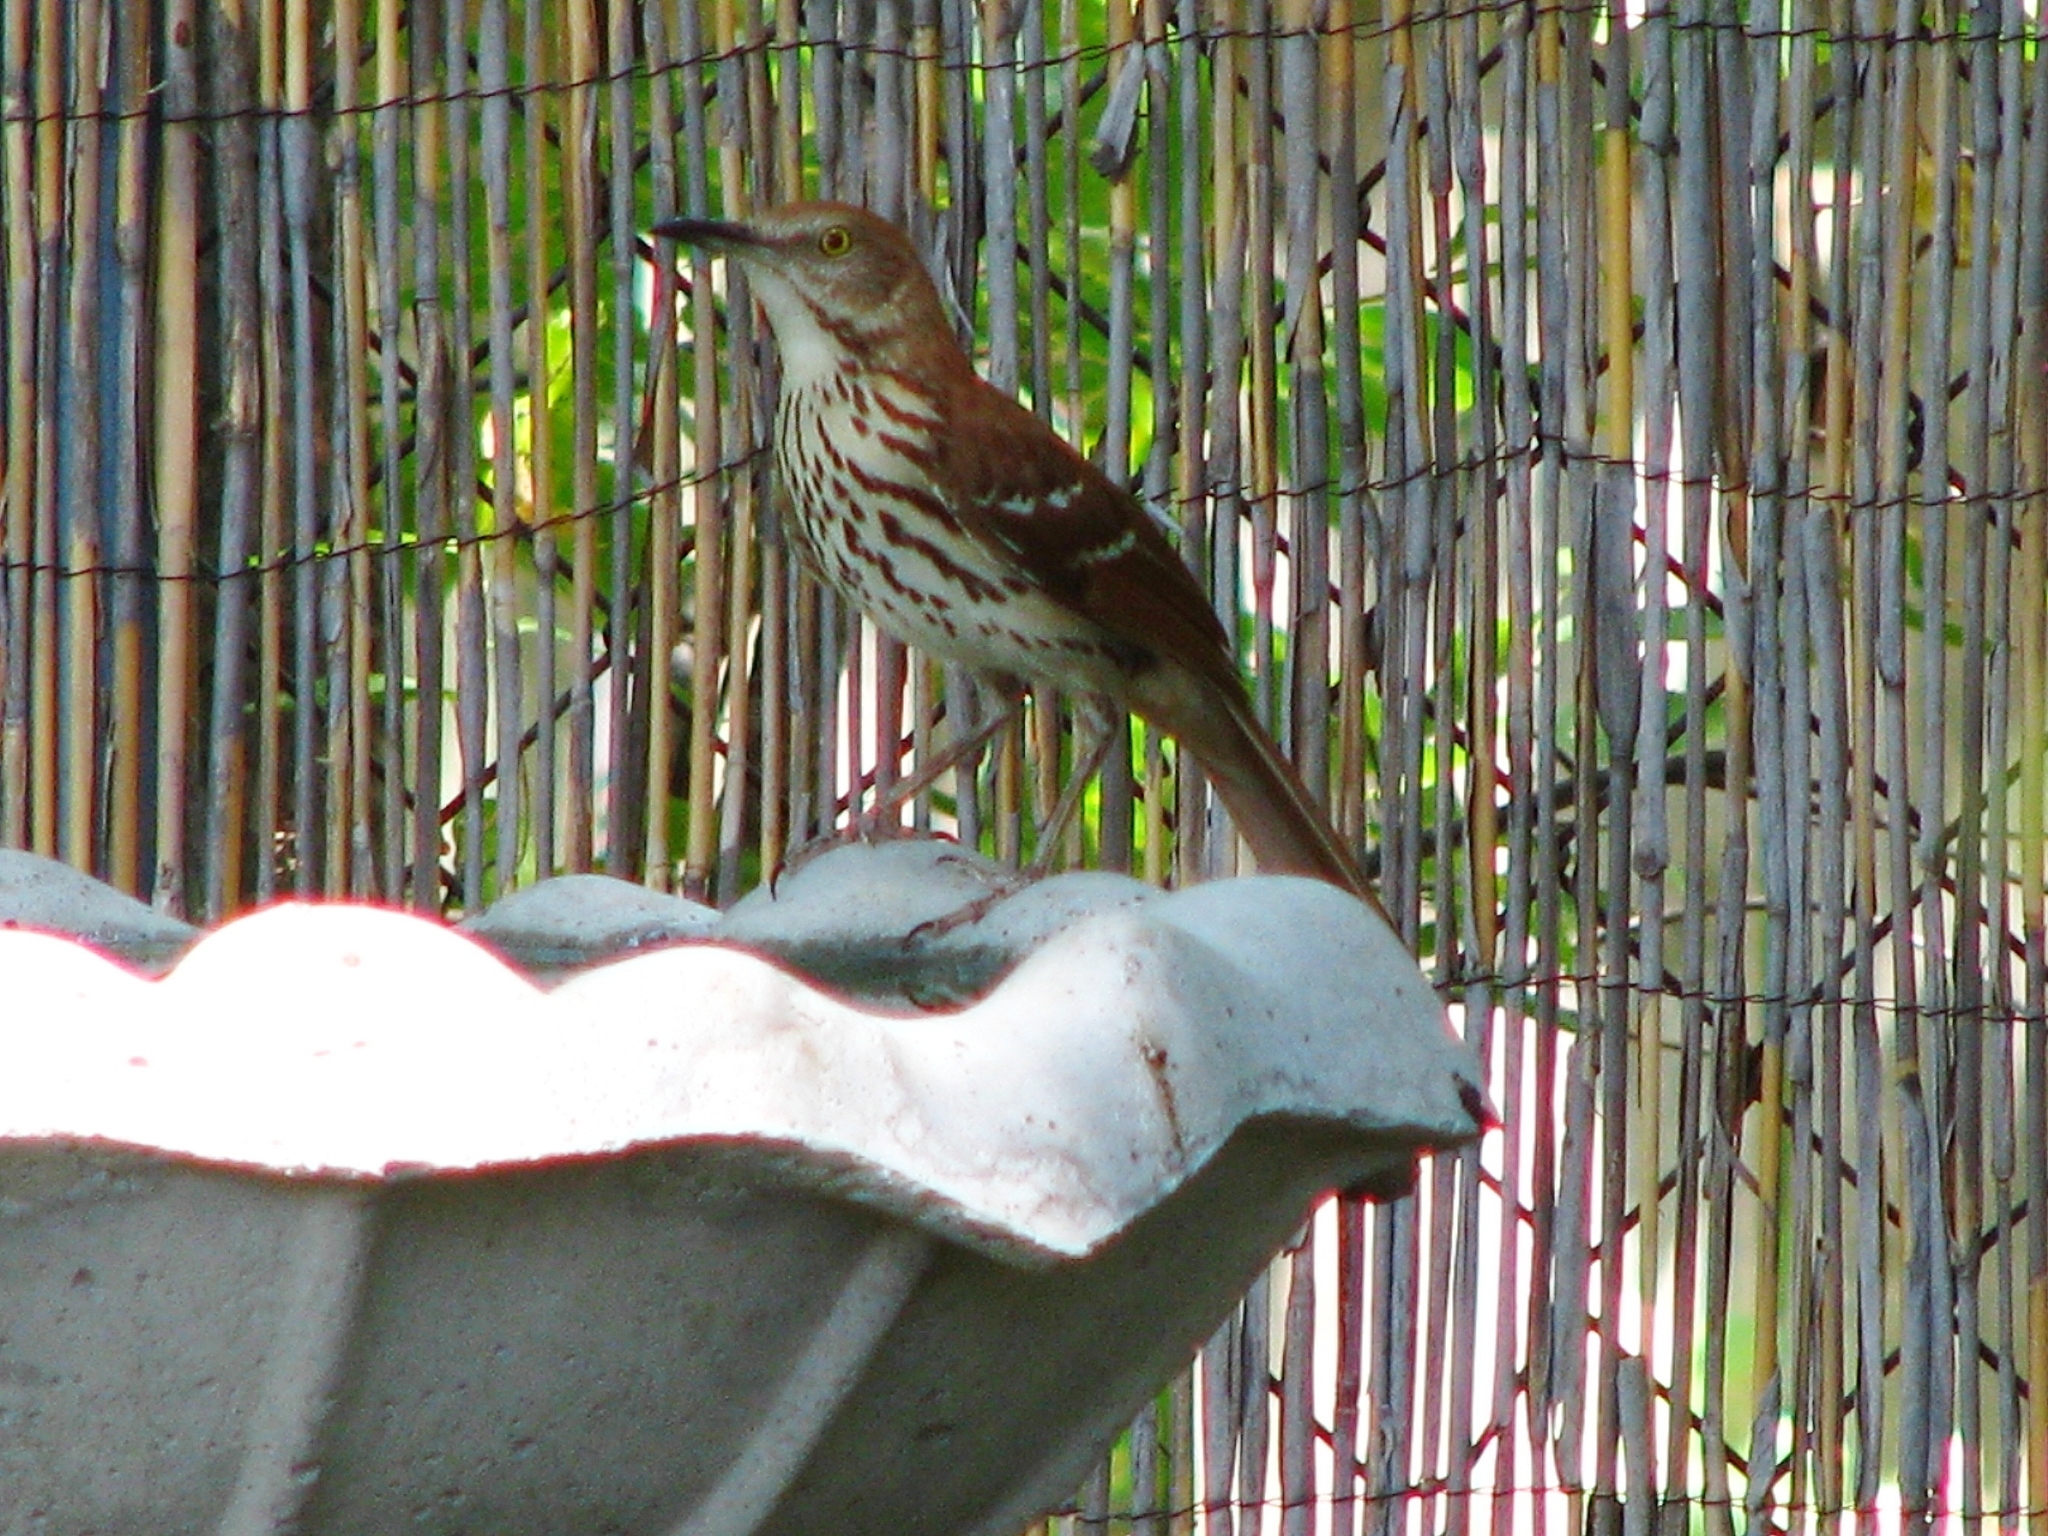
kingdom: Animalia
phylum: Chordata
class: Aves
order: Passeriformes
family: Mimidae
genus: Toxostoma
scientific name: Toxostoma rufum
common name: Brown thrasher
